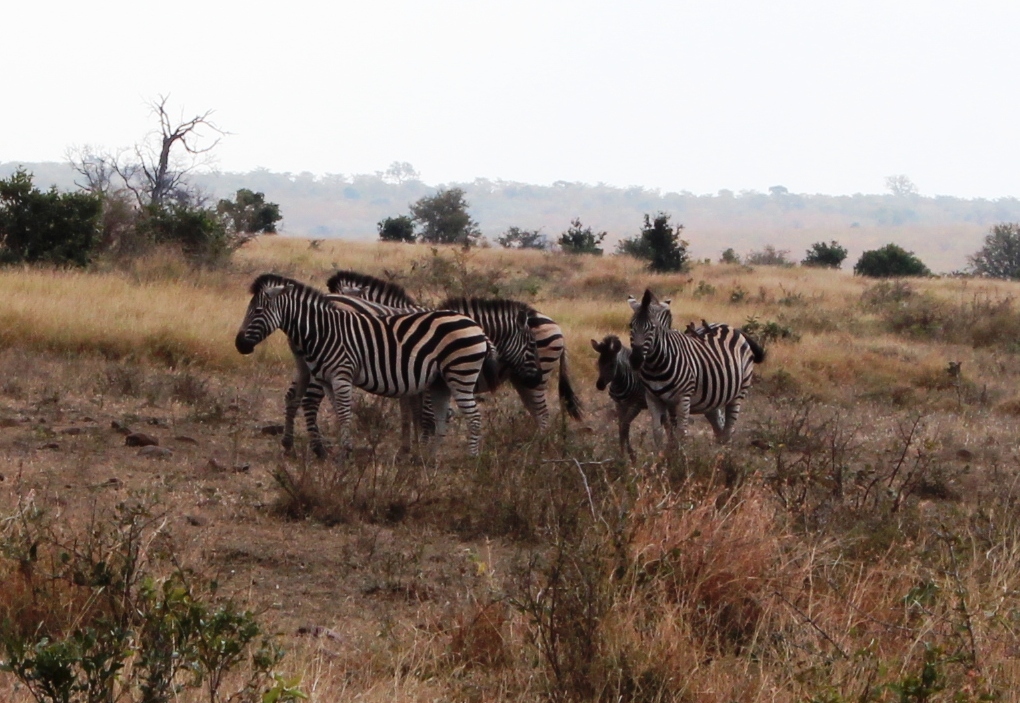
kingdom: Animalia
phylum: Chordata
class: Mammalia
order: Perissodactyla
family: Equidae
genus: Equus
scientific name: Equus quagga
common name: Plains zebra
